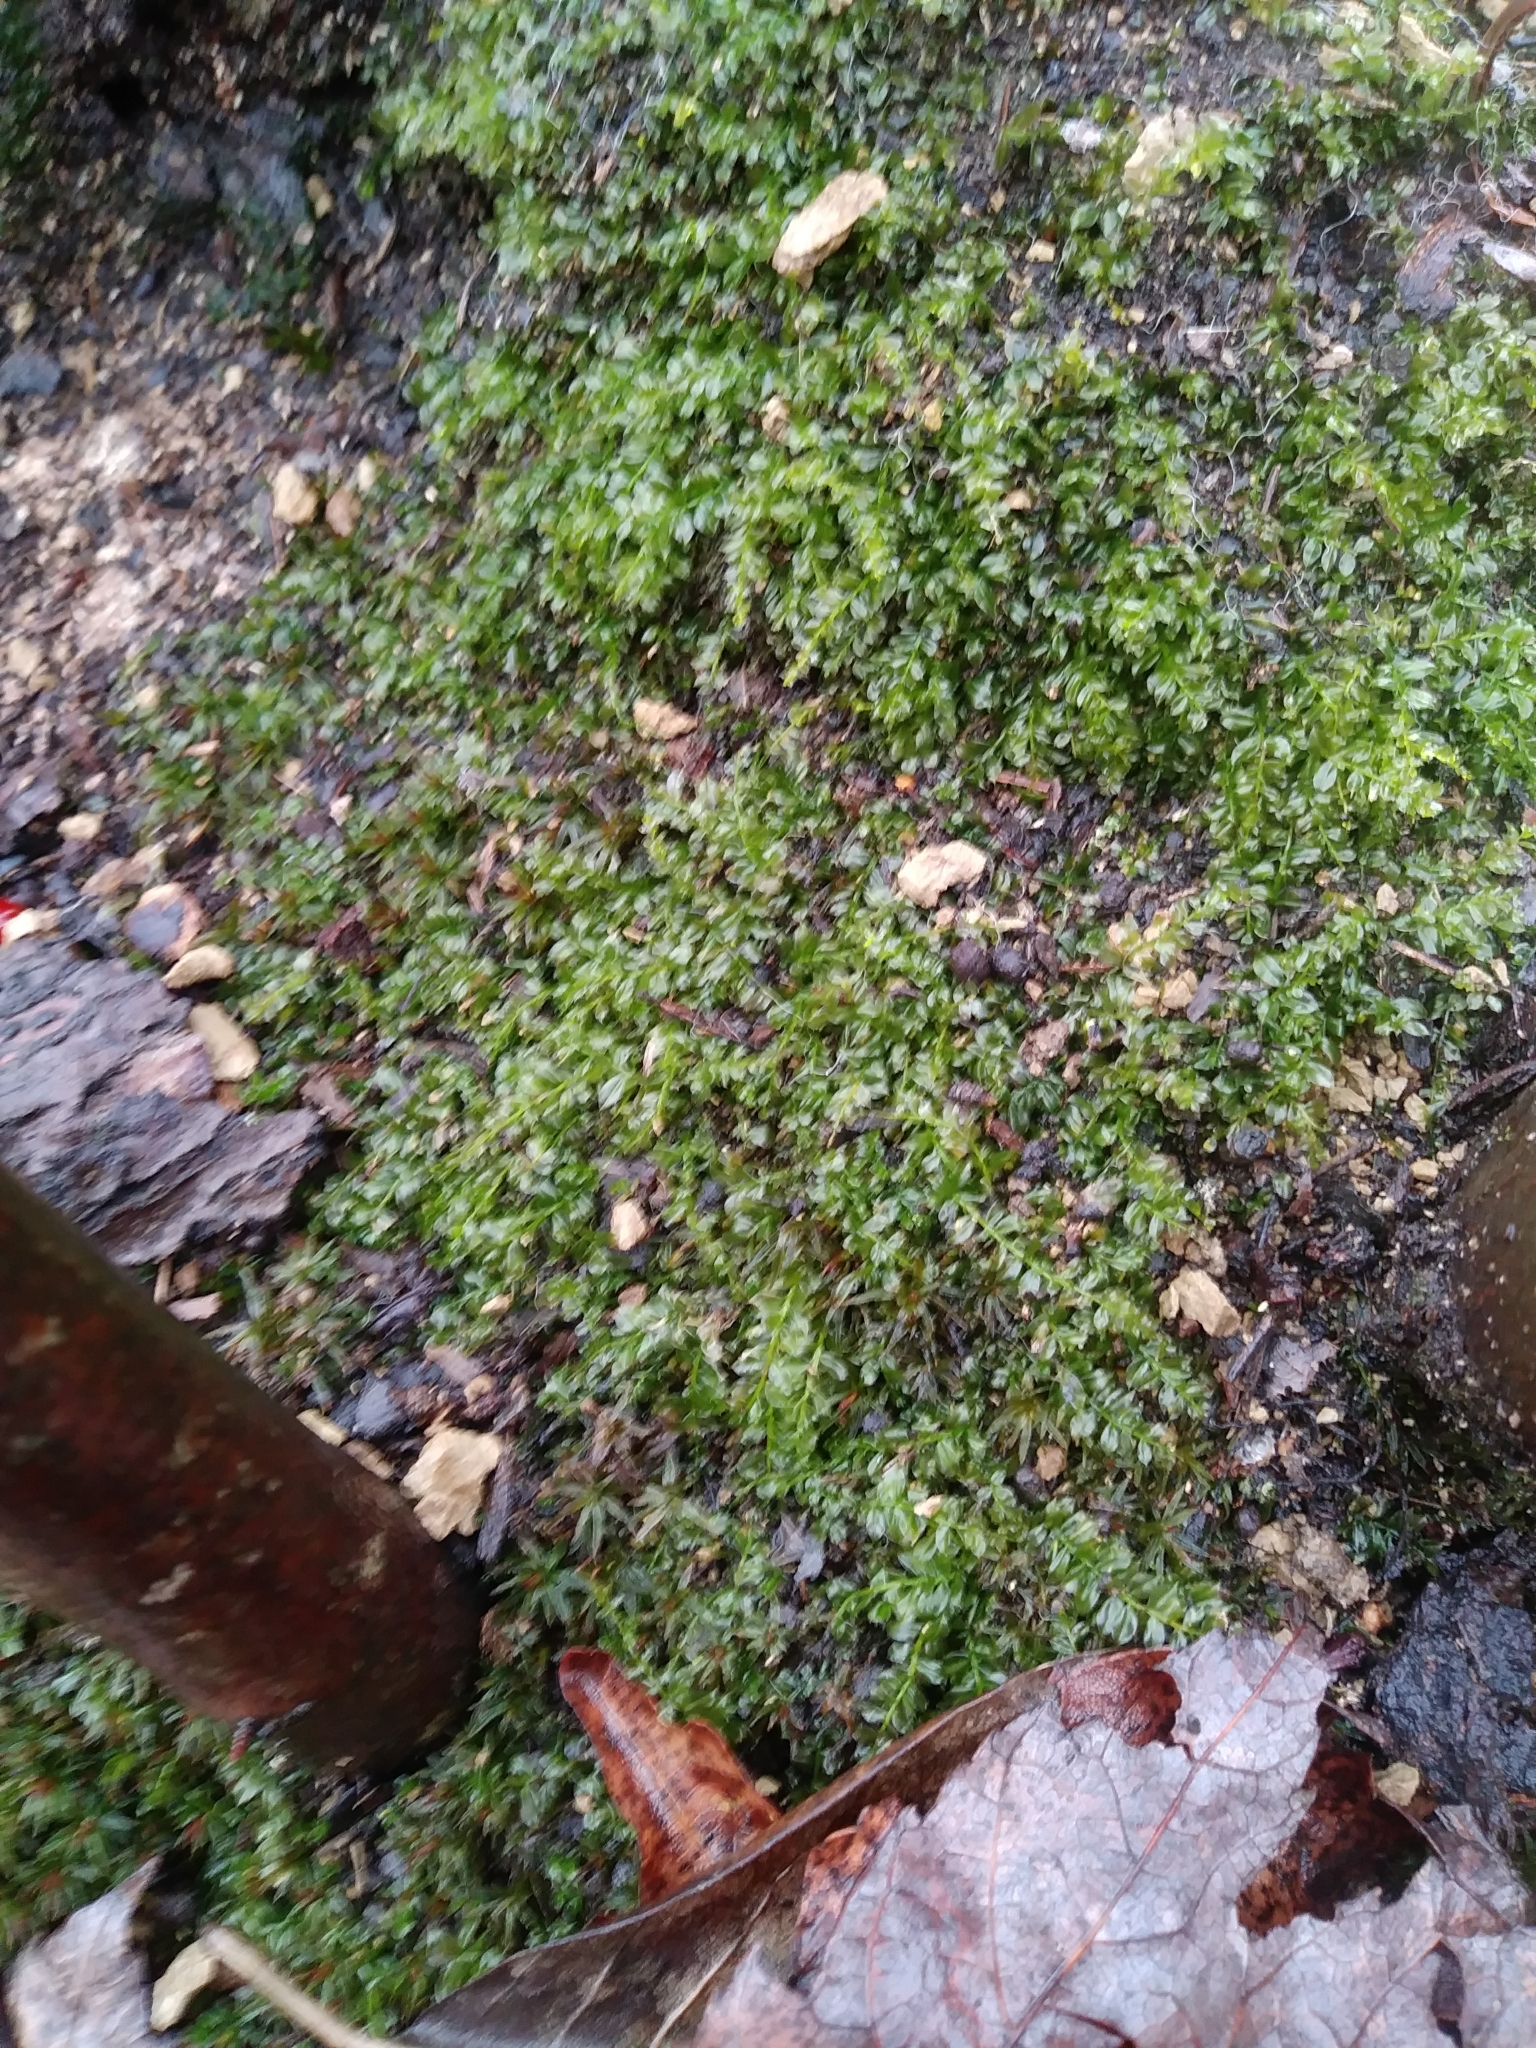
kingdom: Plantae
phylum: Bryophyta
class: Bryopsida
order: Bryales
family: Mniaceae
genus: Plagiomnium
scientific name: Plagiomnium cuspidatum
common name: Woodsy leafy moss
